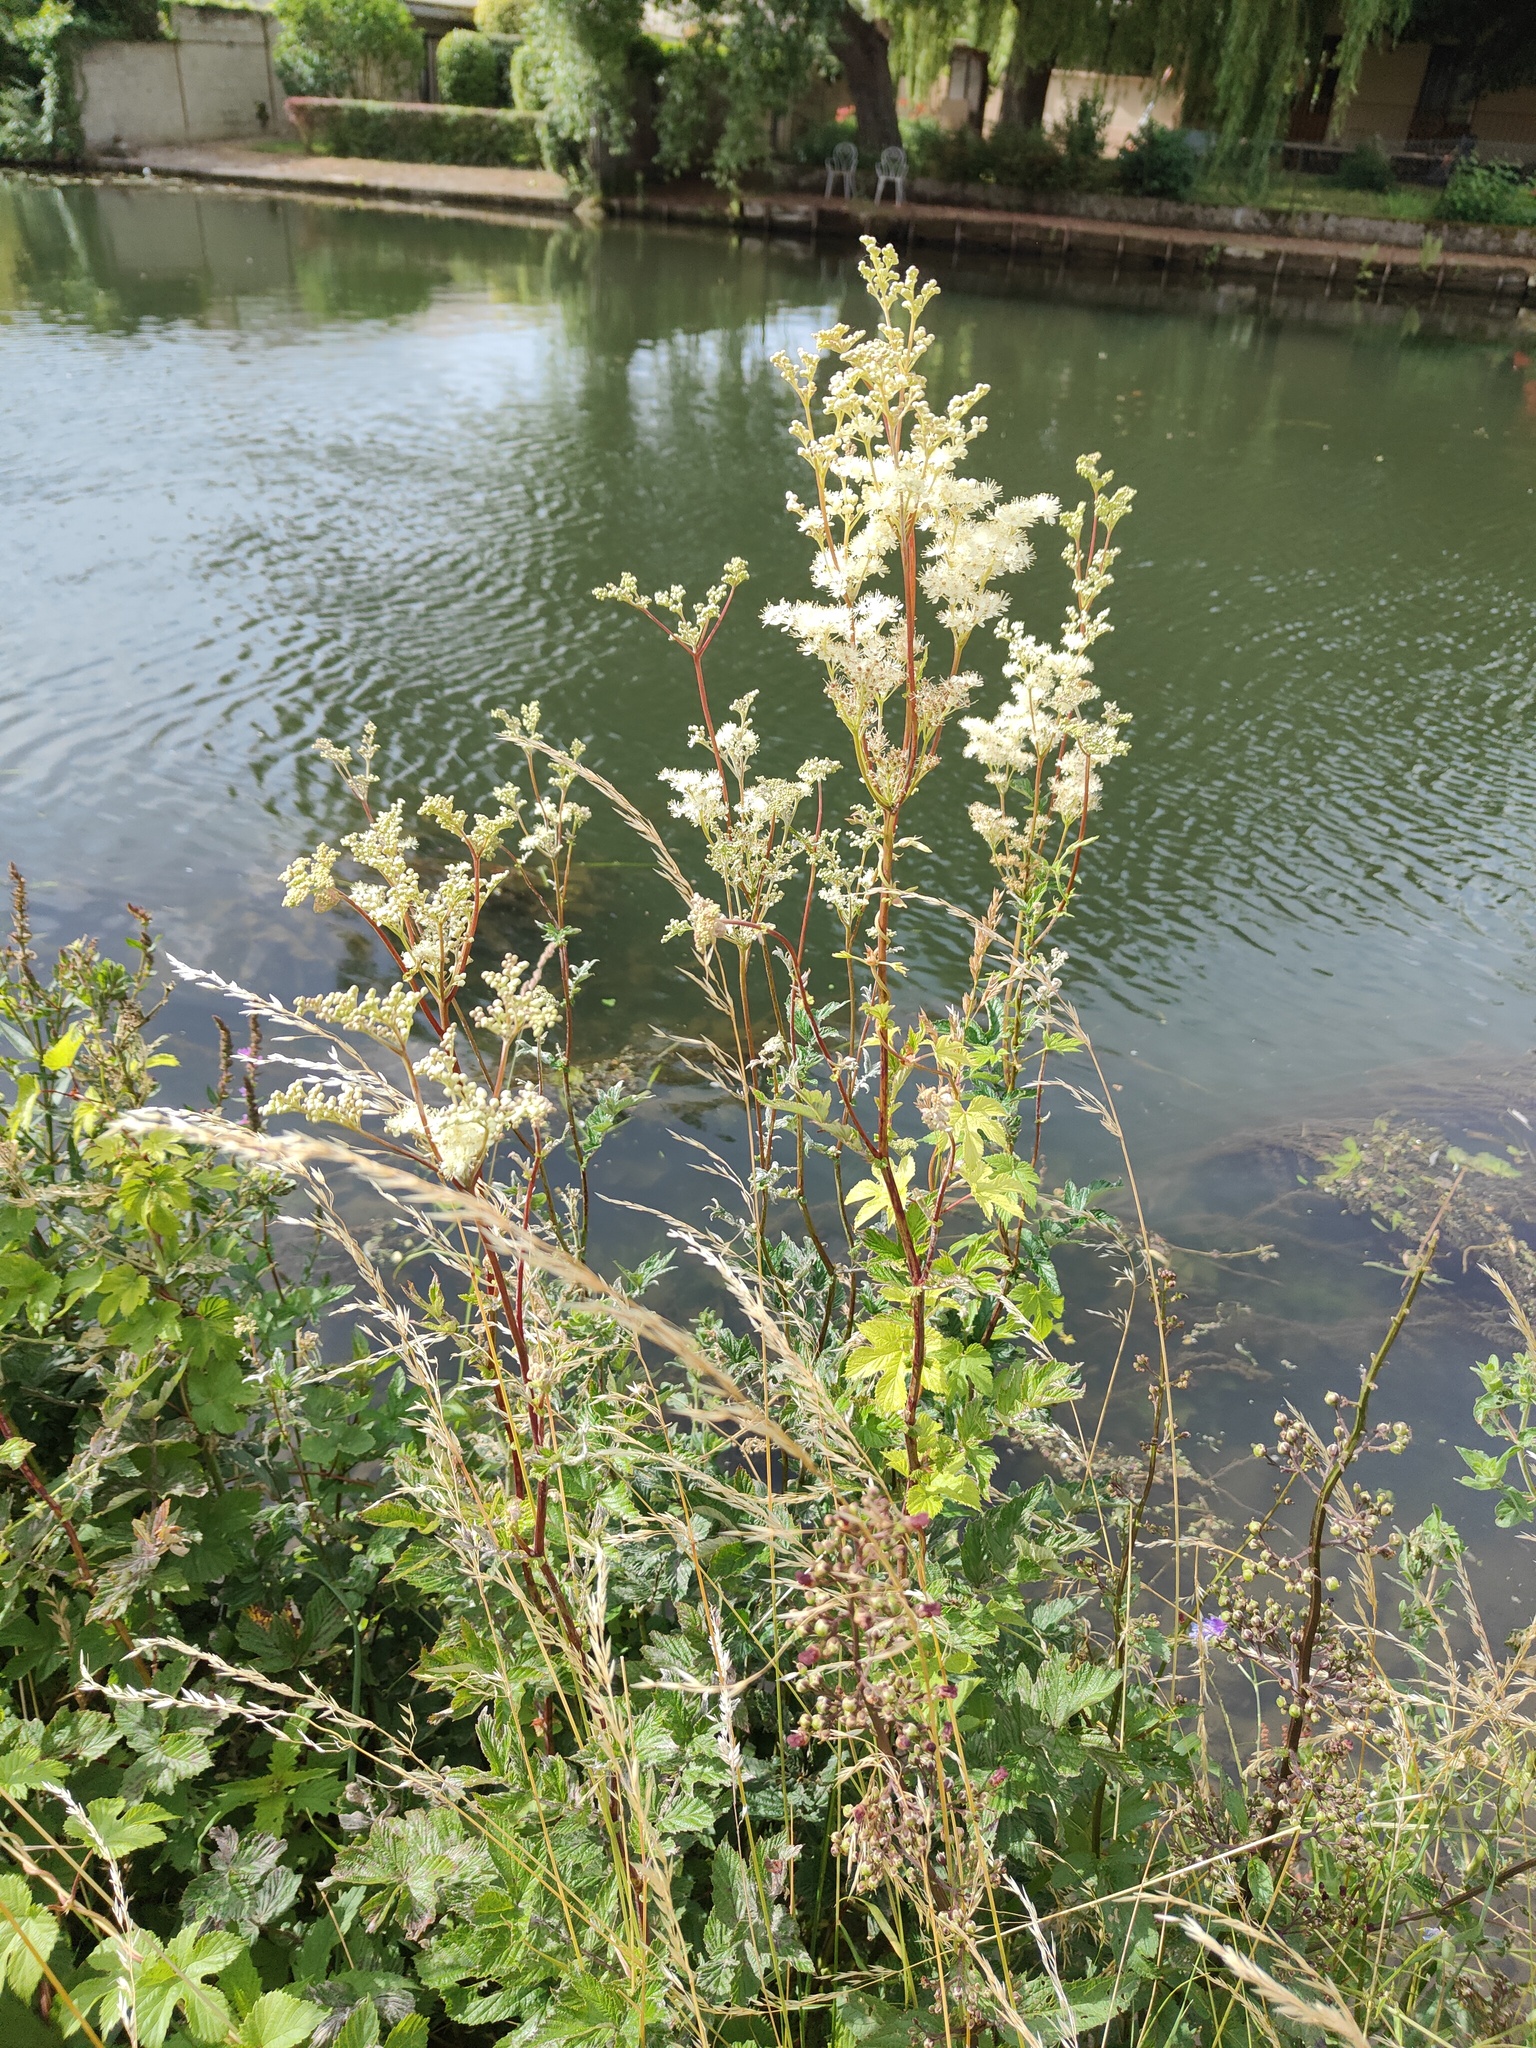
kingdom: Plantae
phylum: Tracheophyta
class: Magnoliopsida
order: Rosales
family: Rosaceae
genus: Filipendula
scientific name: Filipendula ulmaria
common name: Meadowsweet
